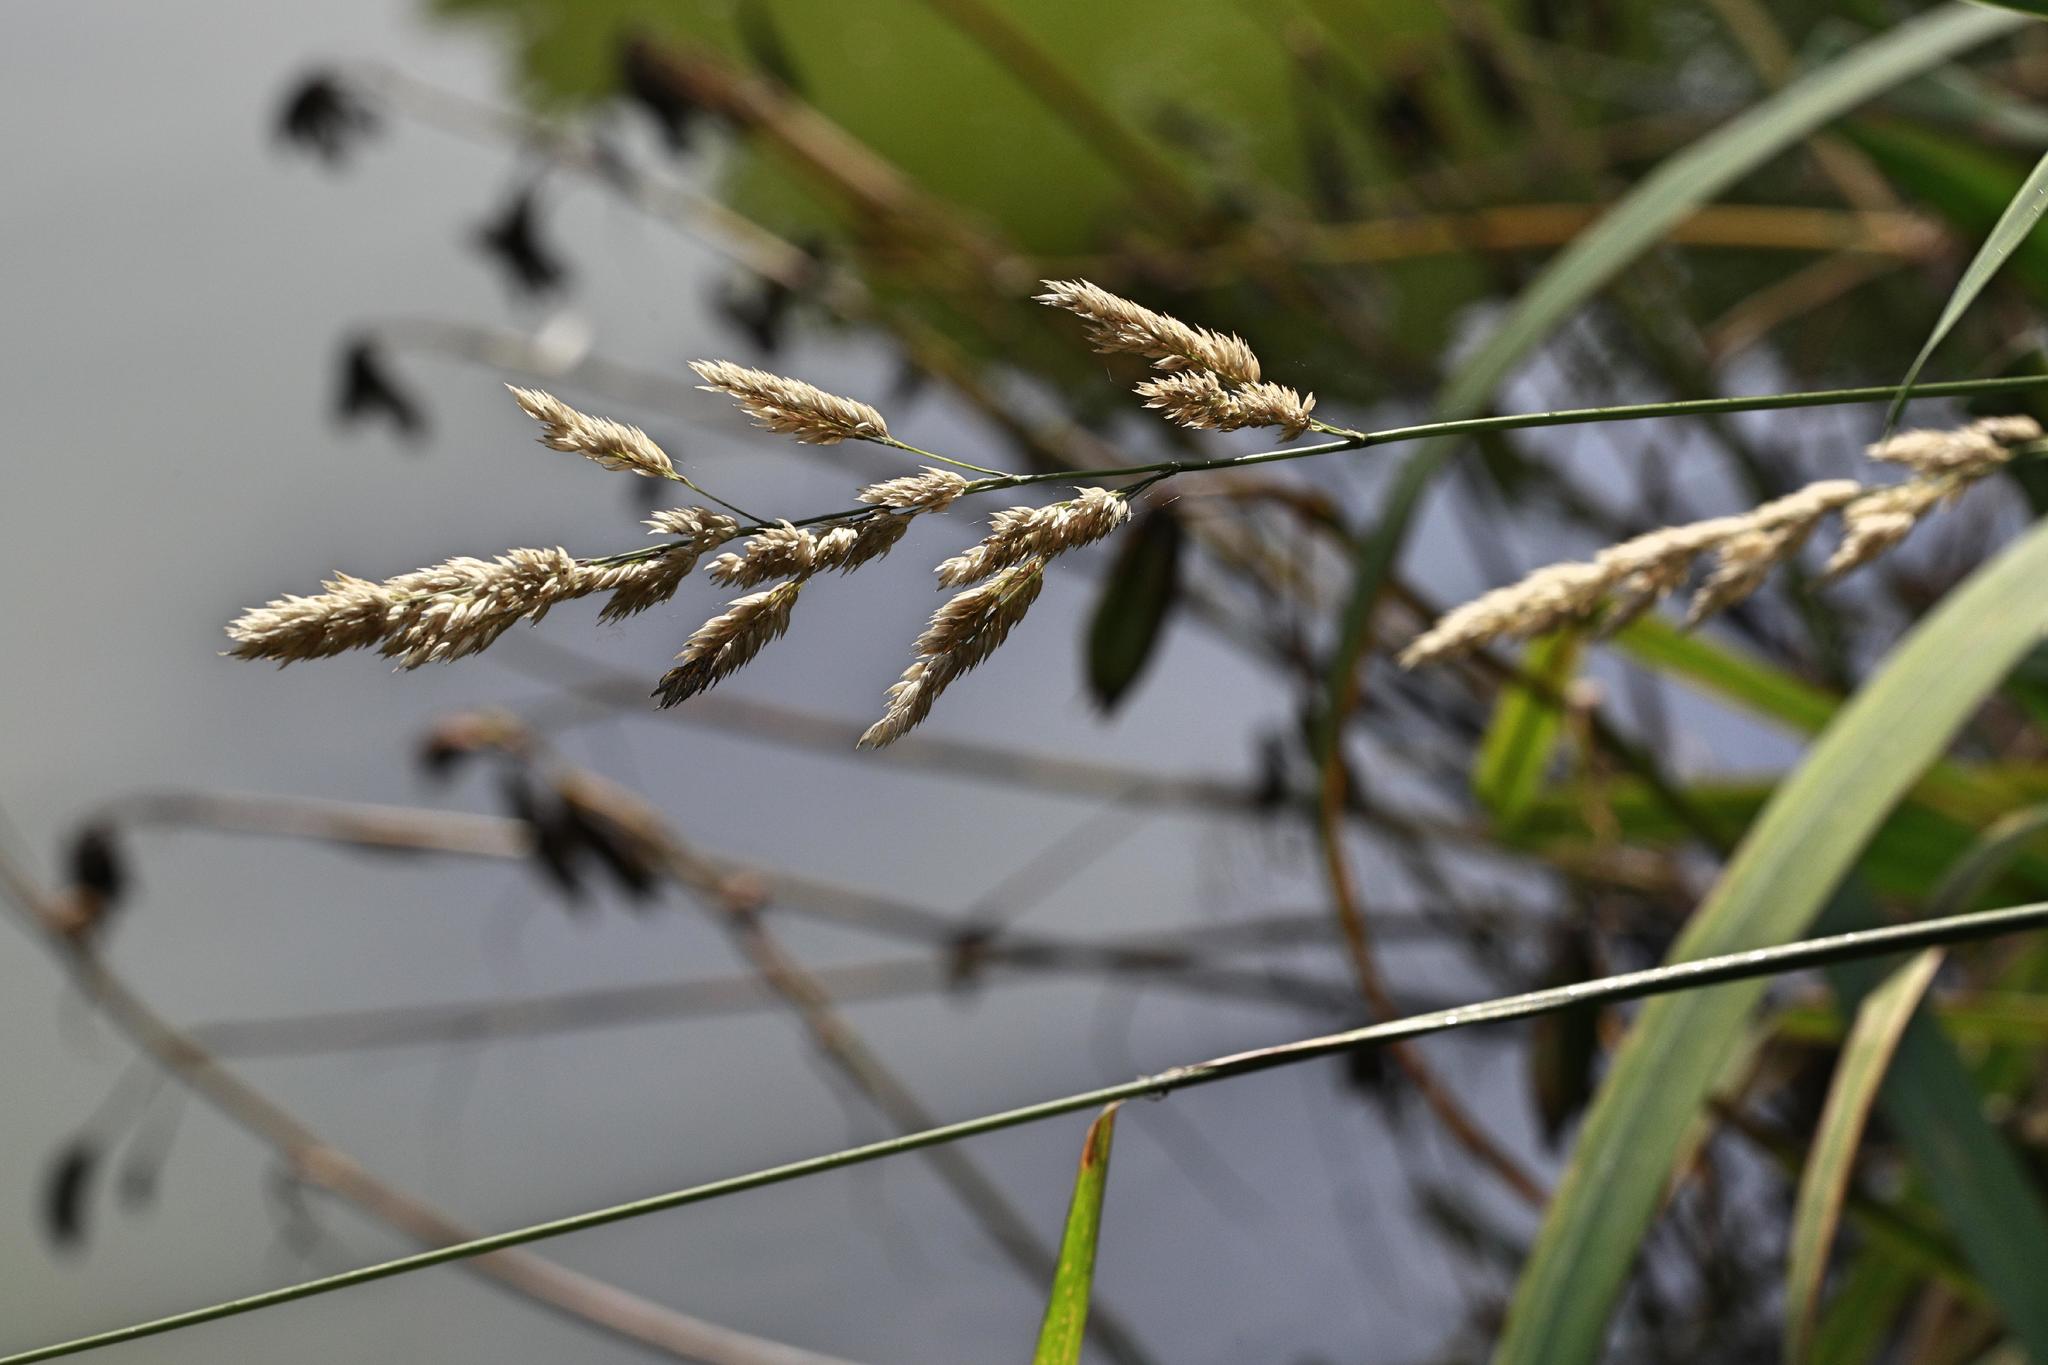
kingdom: Plantae
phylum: Tracheophyta
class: Liliopsida
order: Poales
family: Poaceae
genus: Phalaris
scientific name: Phalaris arundinacea
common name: Reed canary-grass
